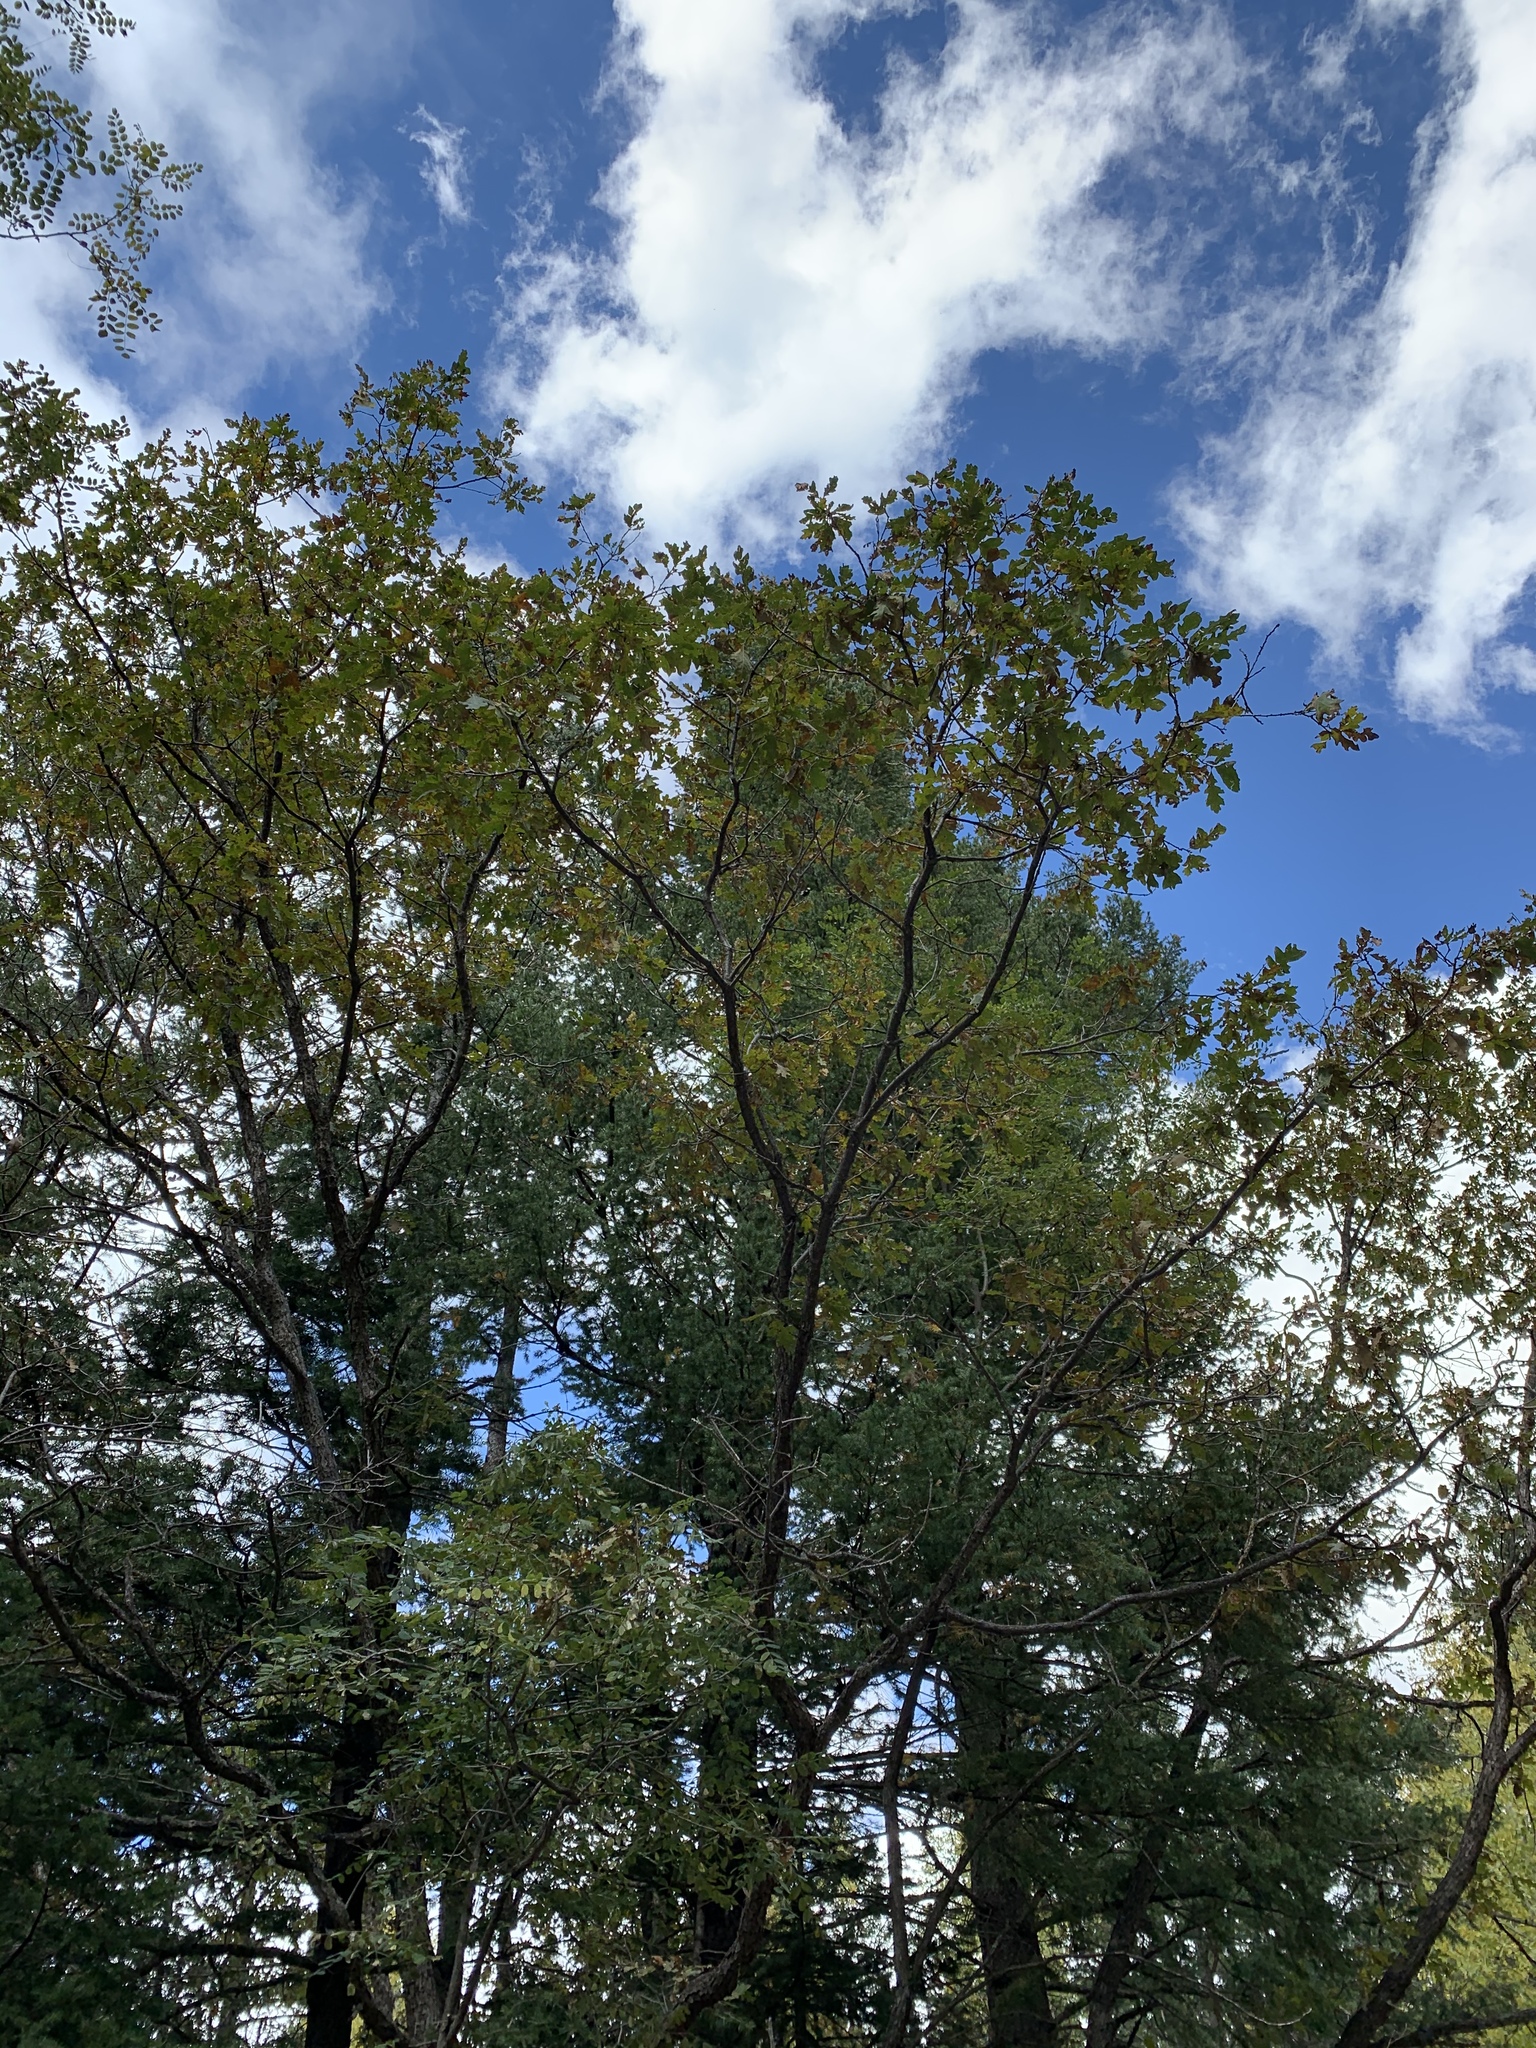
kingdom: Plantae
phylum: Tracheophyta
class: Magnoliopsida
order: Fagales
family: Fagaceae
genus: Quercus
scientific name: Quercus gambelii
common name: Gambel oak
